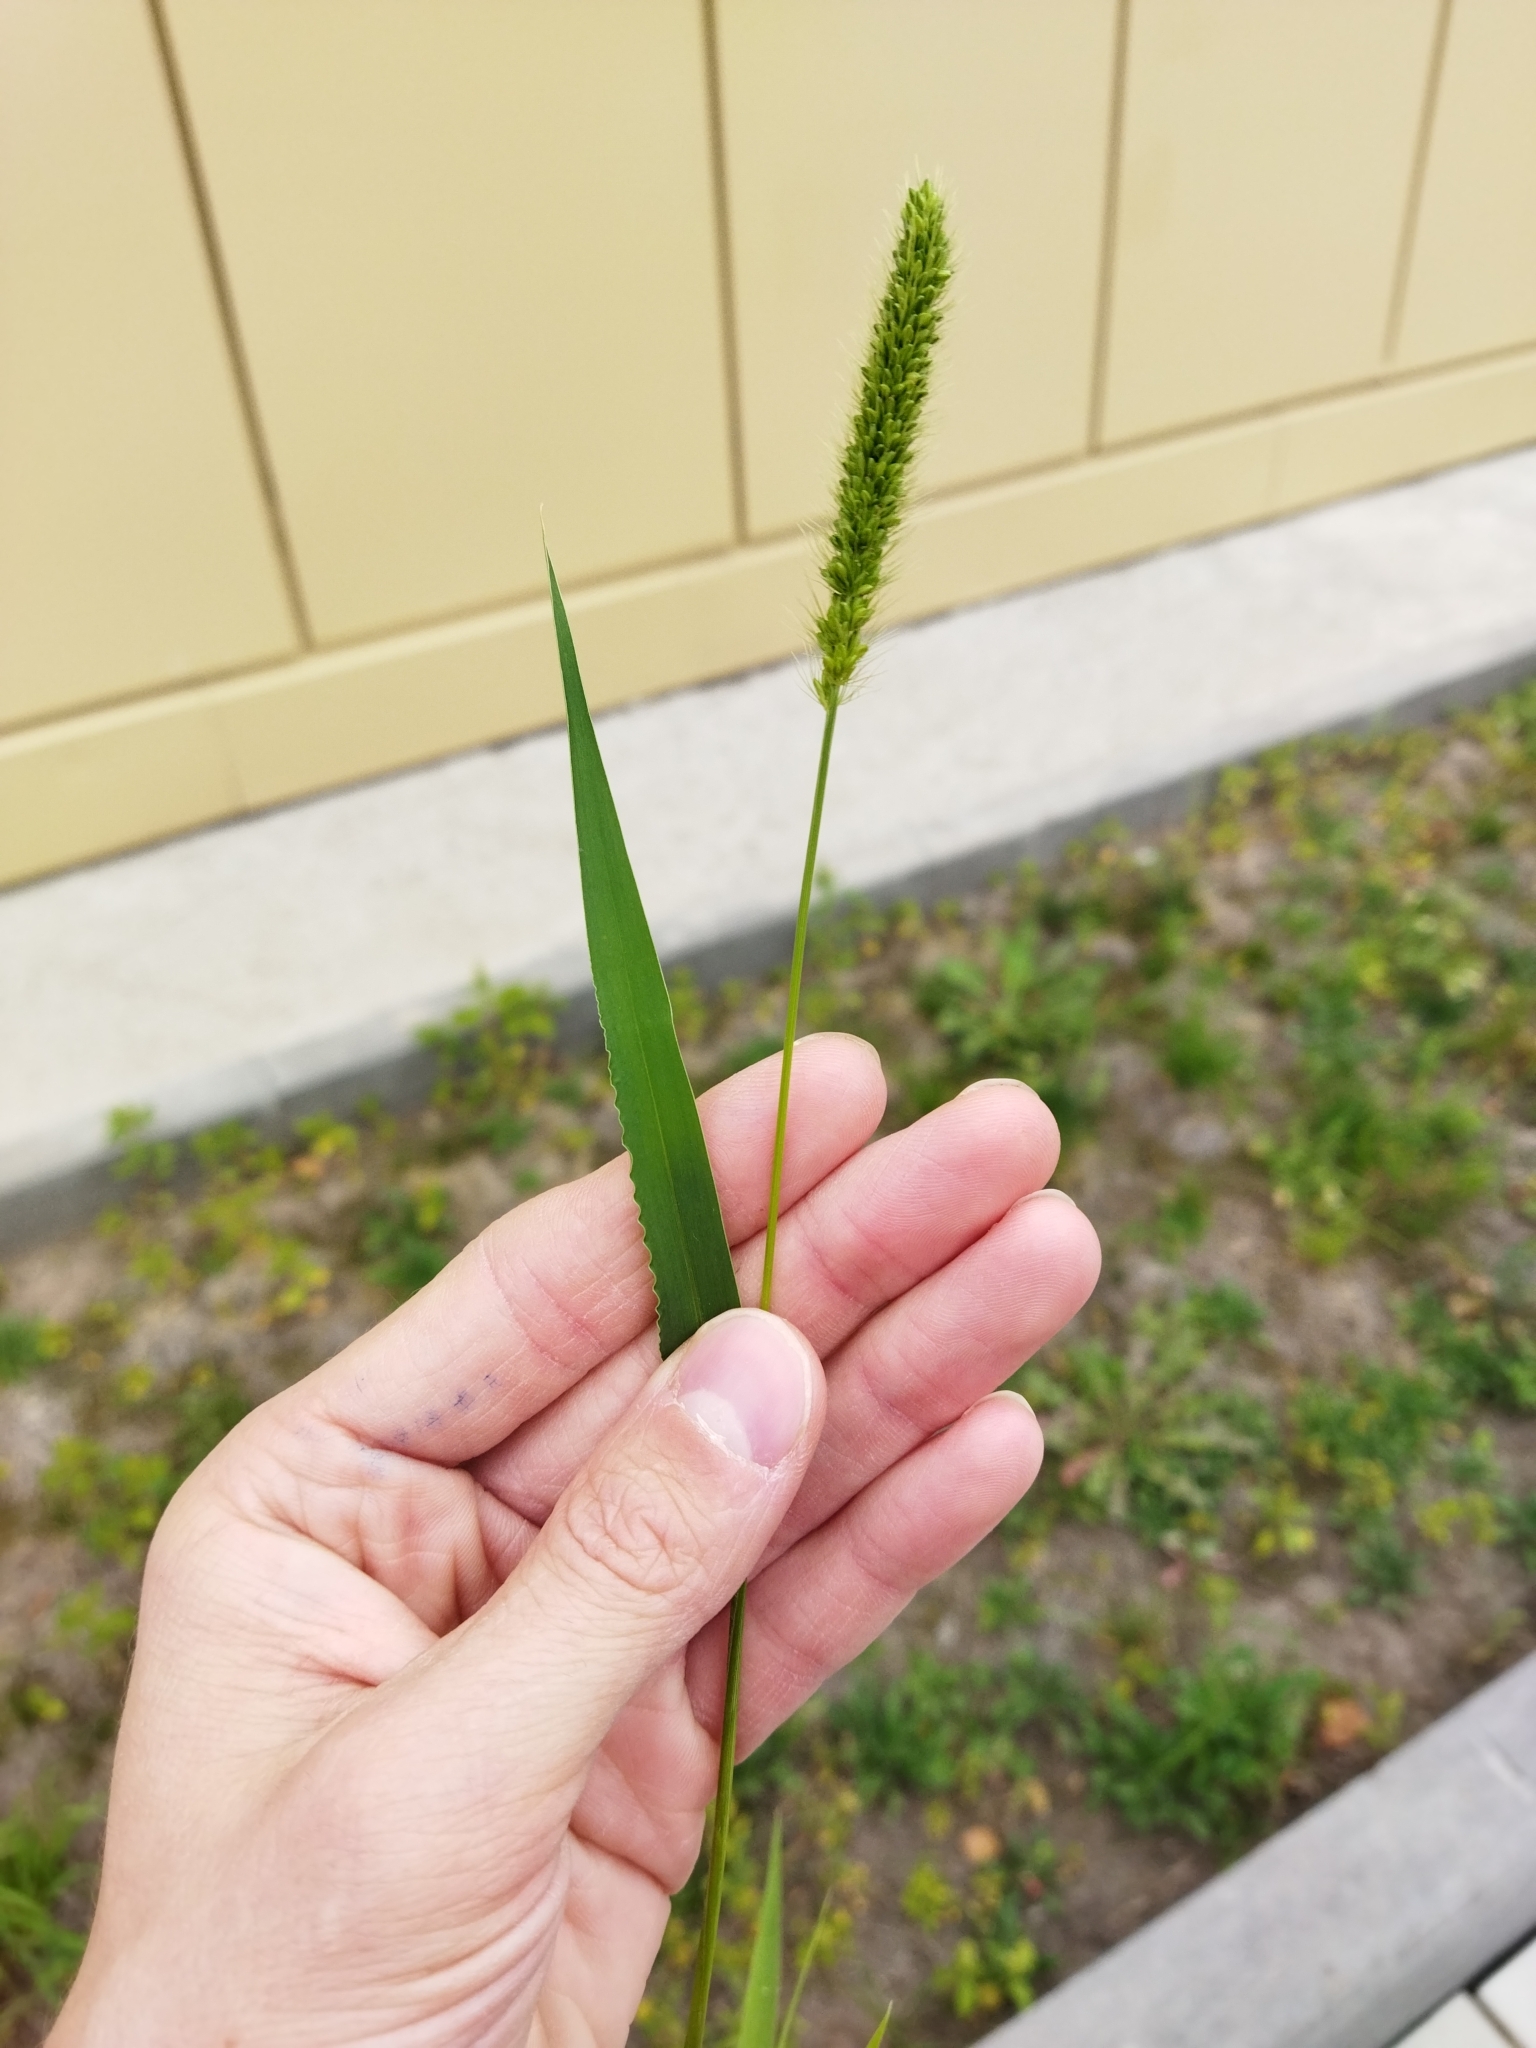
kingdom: Plantae
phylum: Tracheophyta
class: Liliopsida
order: Poales
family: Poaceae
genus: Setaria
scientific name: Setaria viridis
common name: Green bristlegrass
